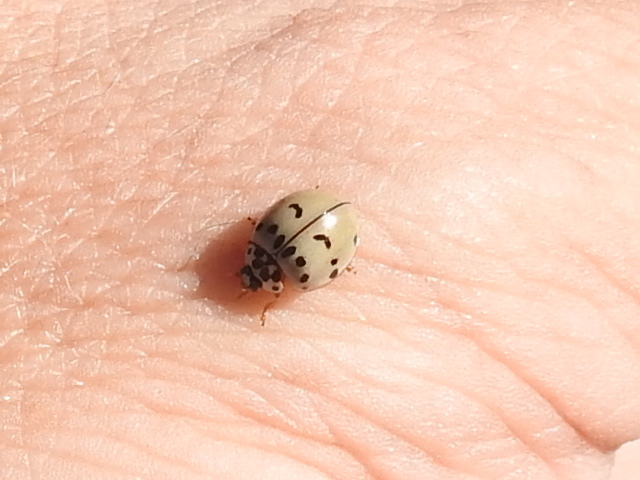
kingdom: Animalia
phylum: Arthropoda
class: Insecta
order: Coleoptera
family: Coccinellidae
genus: Olla
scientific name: Olla v-nigrum
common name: Ashy gray lady beetle
